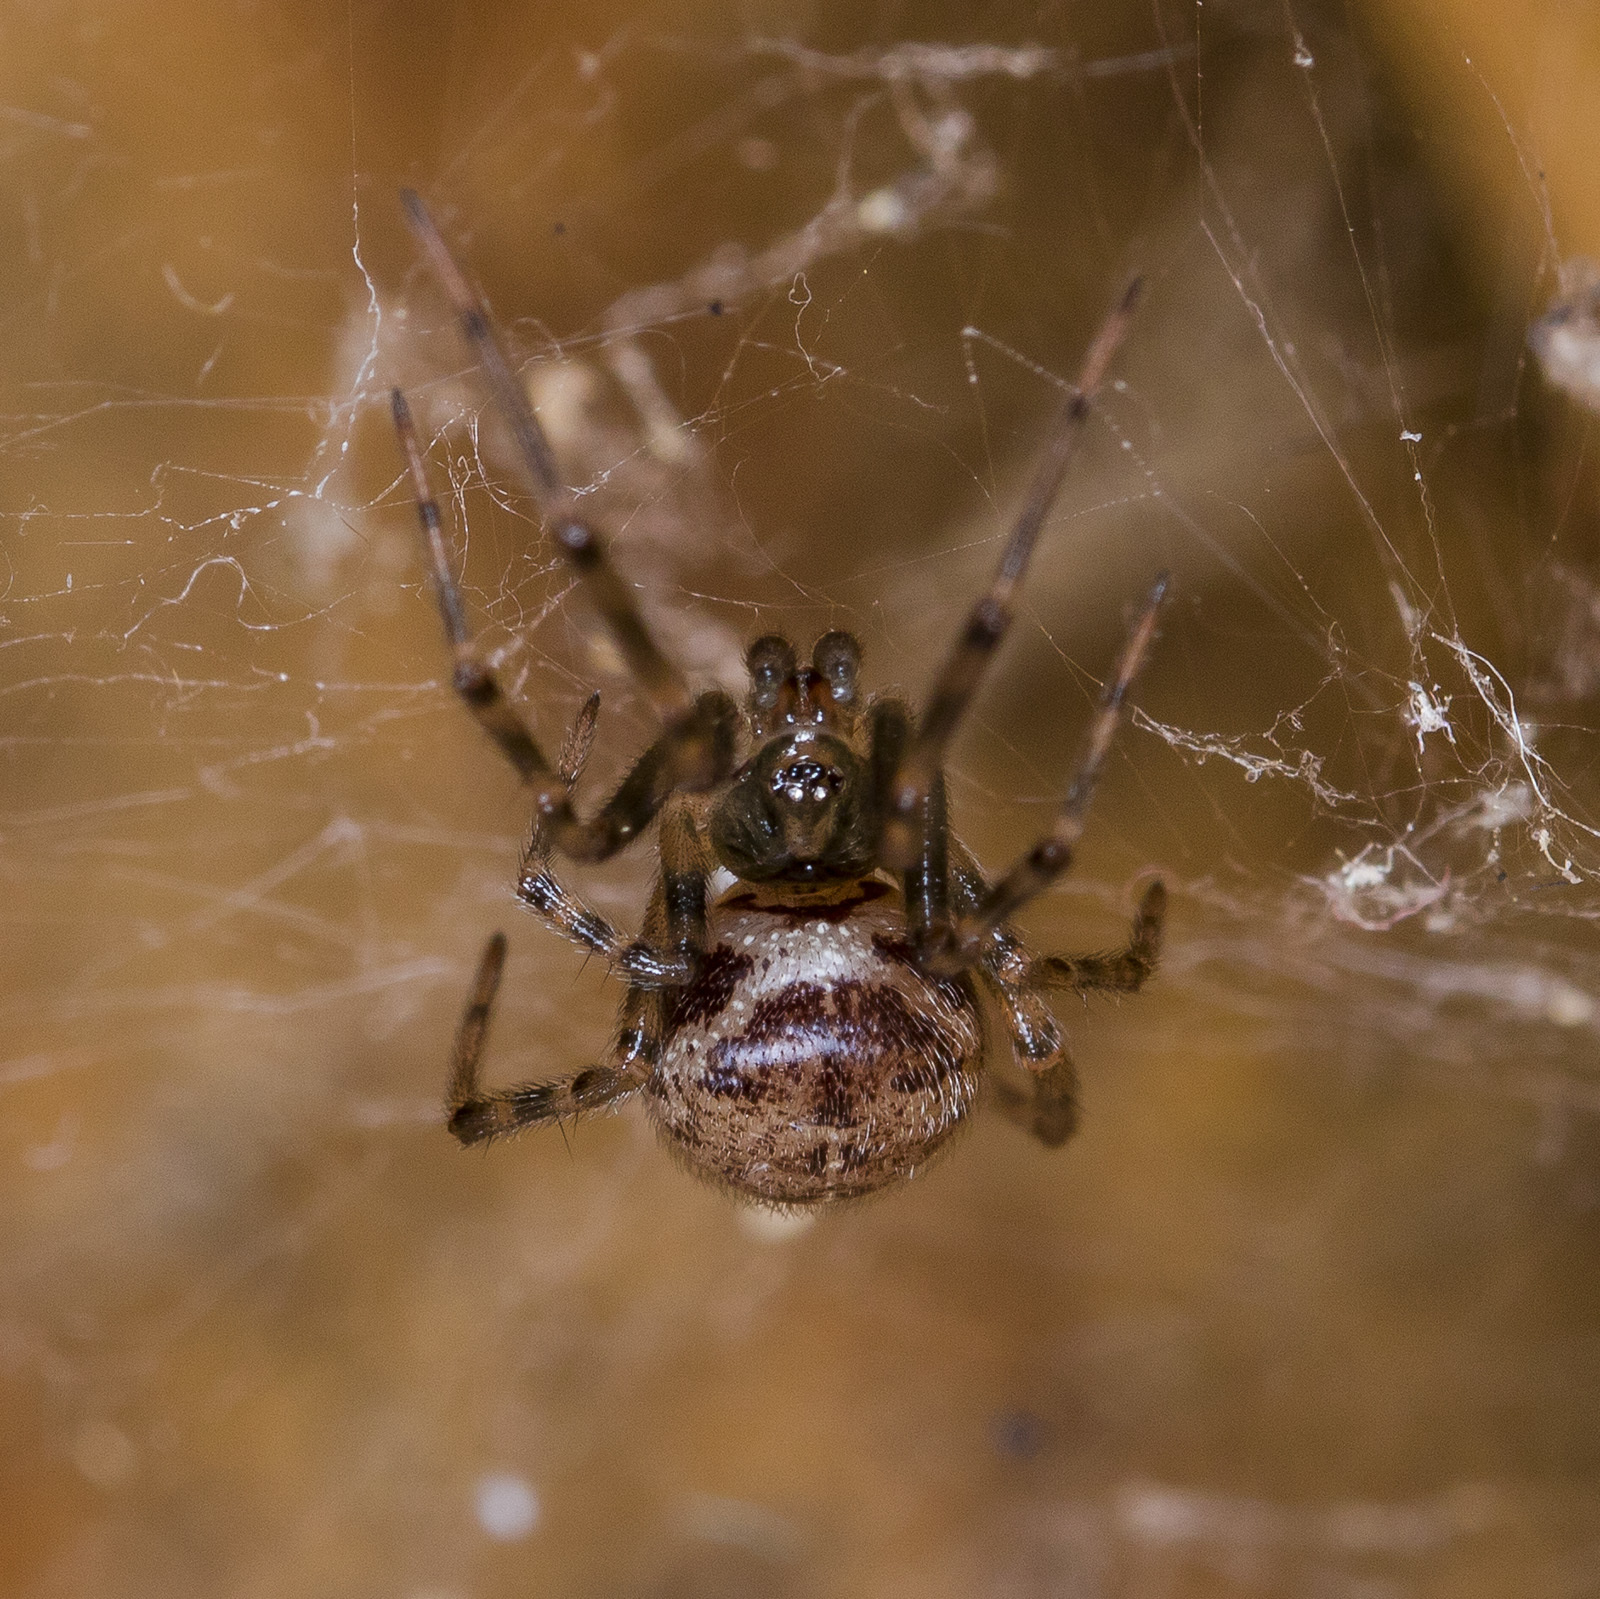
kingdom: Animalia
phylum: Arthropoda
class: Arachnida
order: Araneae
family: Theridiidae
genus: Steatoda
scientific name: Steatoda castanea
